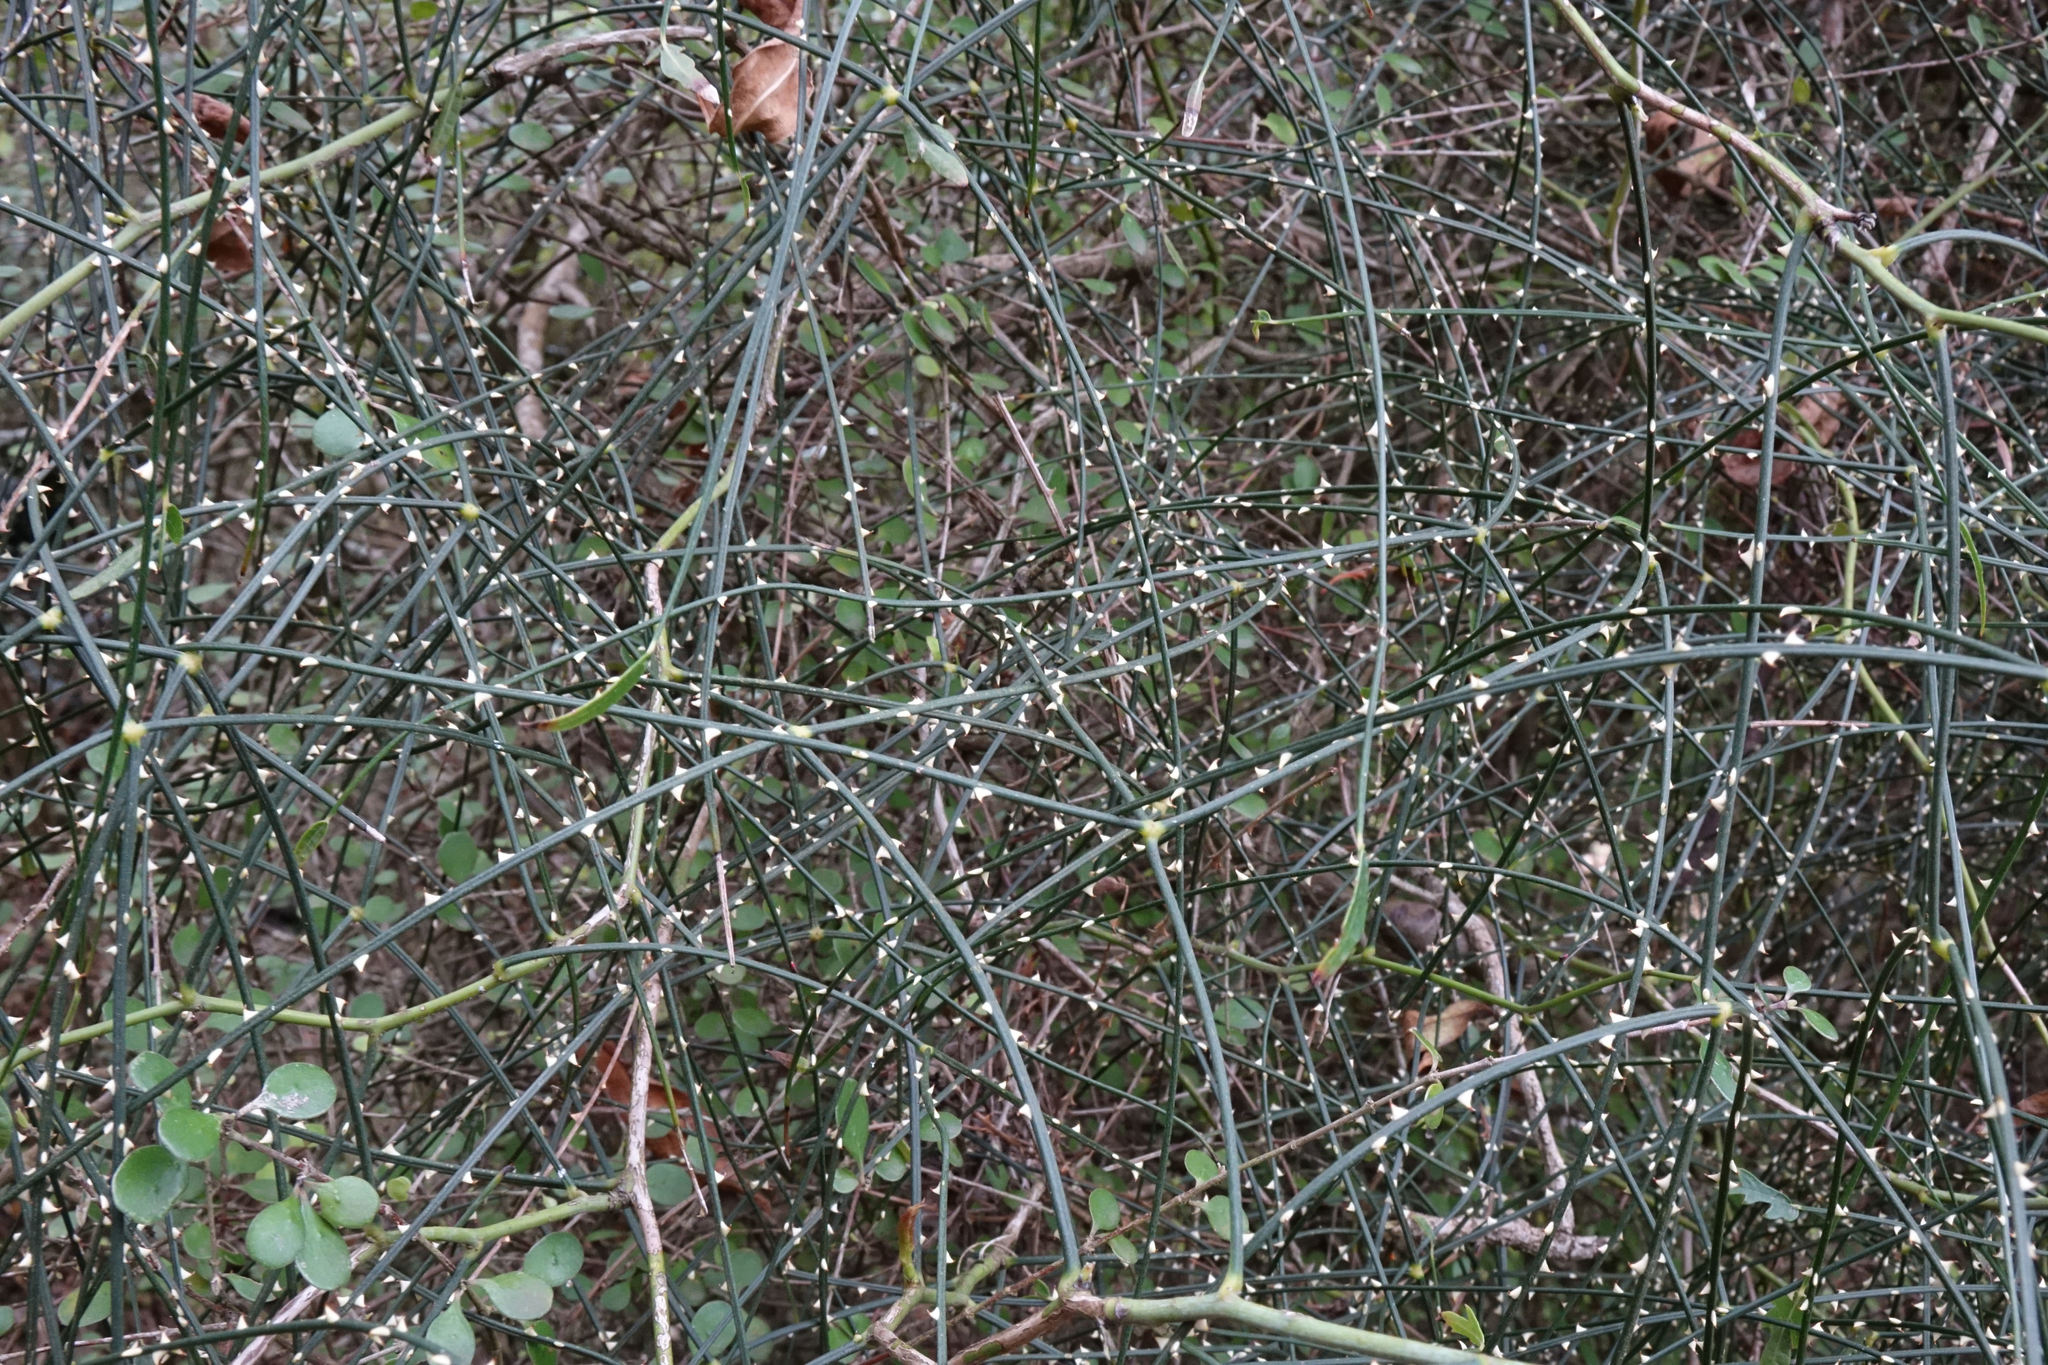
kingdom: Plantae
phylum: Tracheophyta
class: Magnoliopsida
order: Rosales
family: Rosaceae
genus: Rubus
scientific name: Rubus squarrosus
